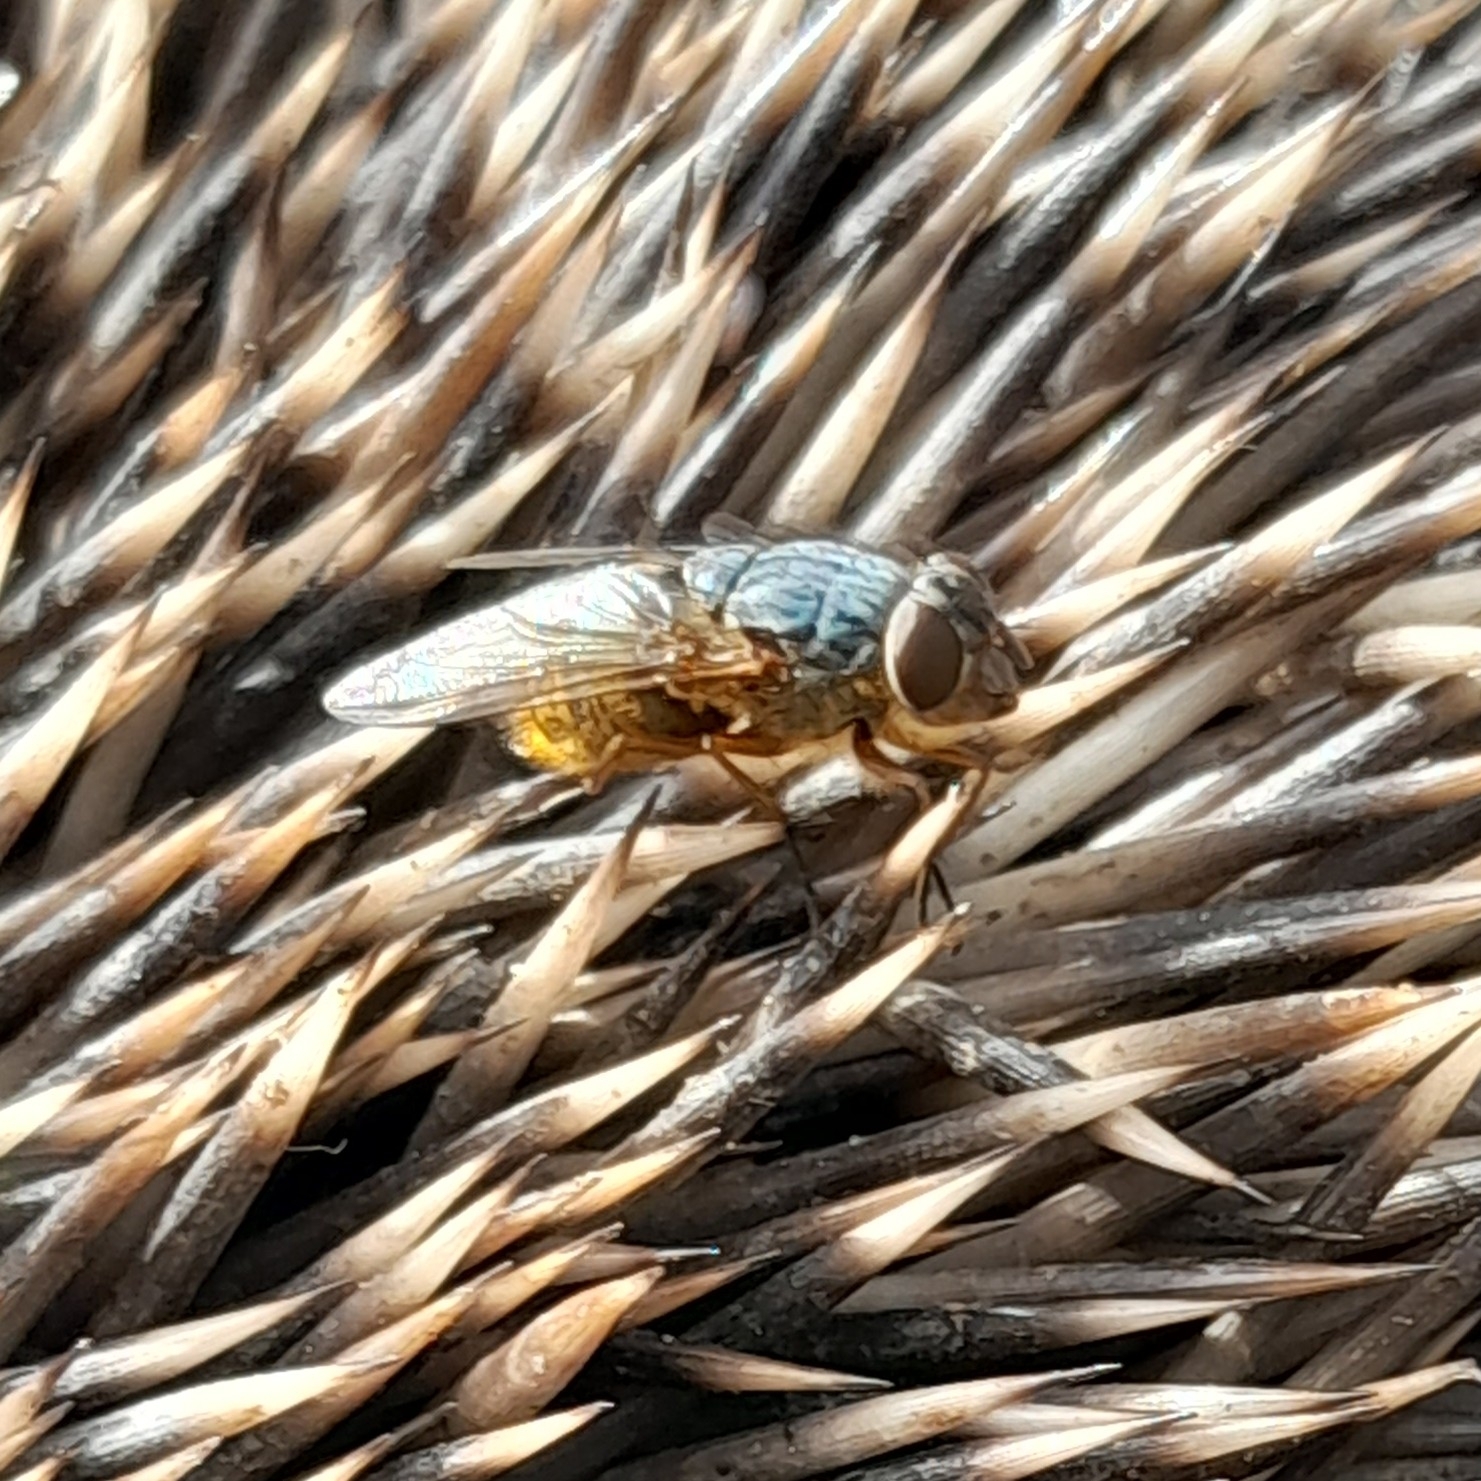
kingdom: Animalia
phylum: Arthropoda
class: Insecta
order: Diptera
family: Calliphoridae
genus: Calliphora
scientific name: Calliphora
